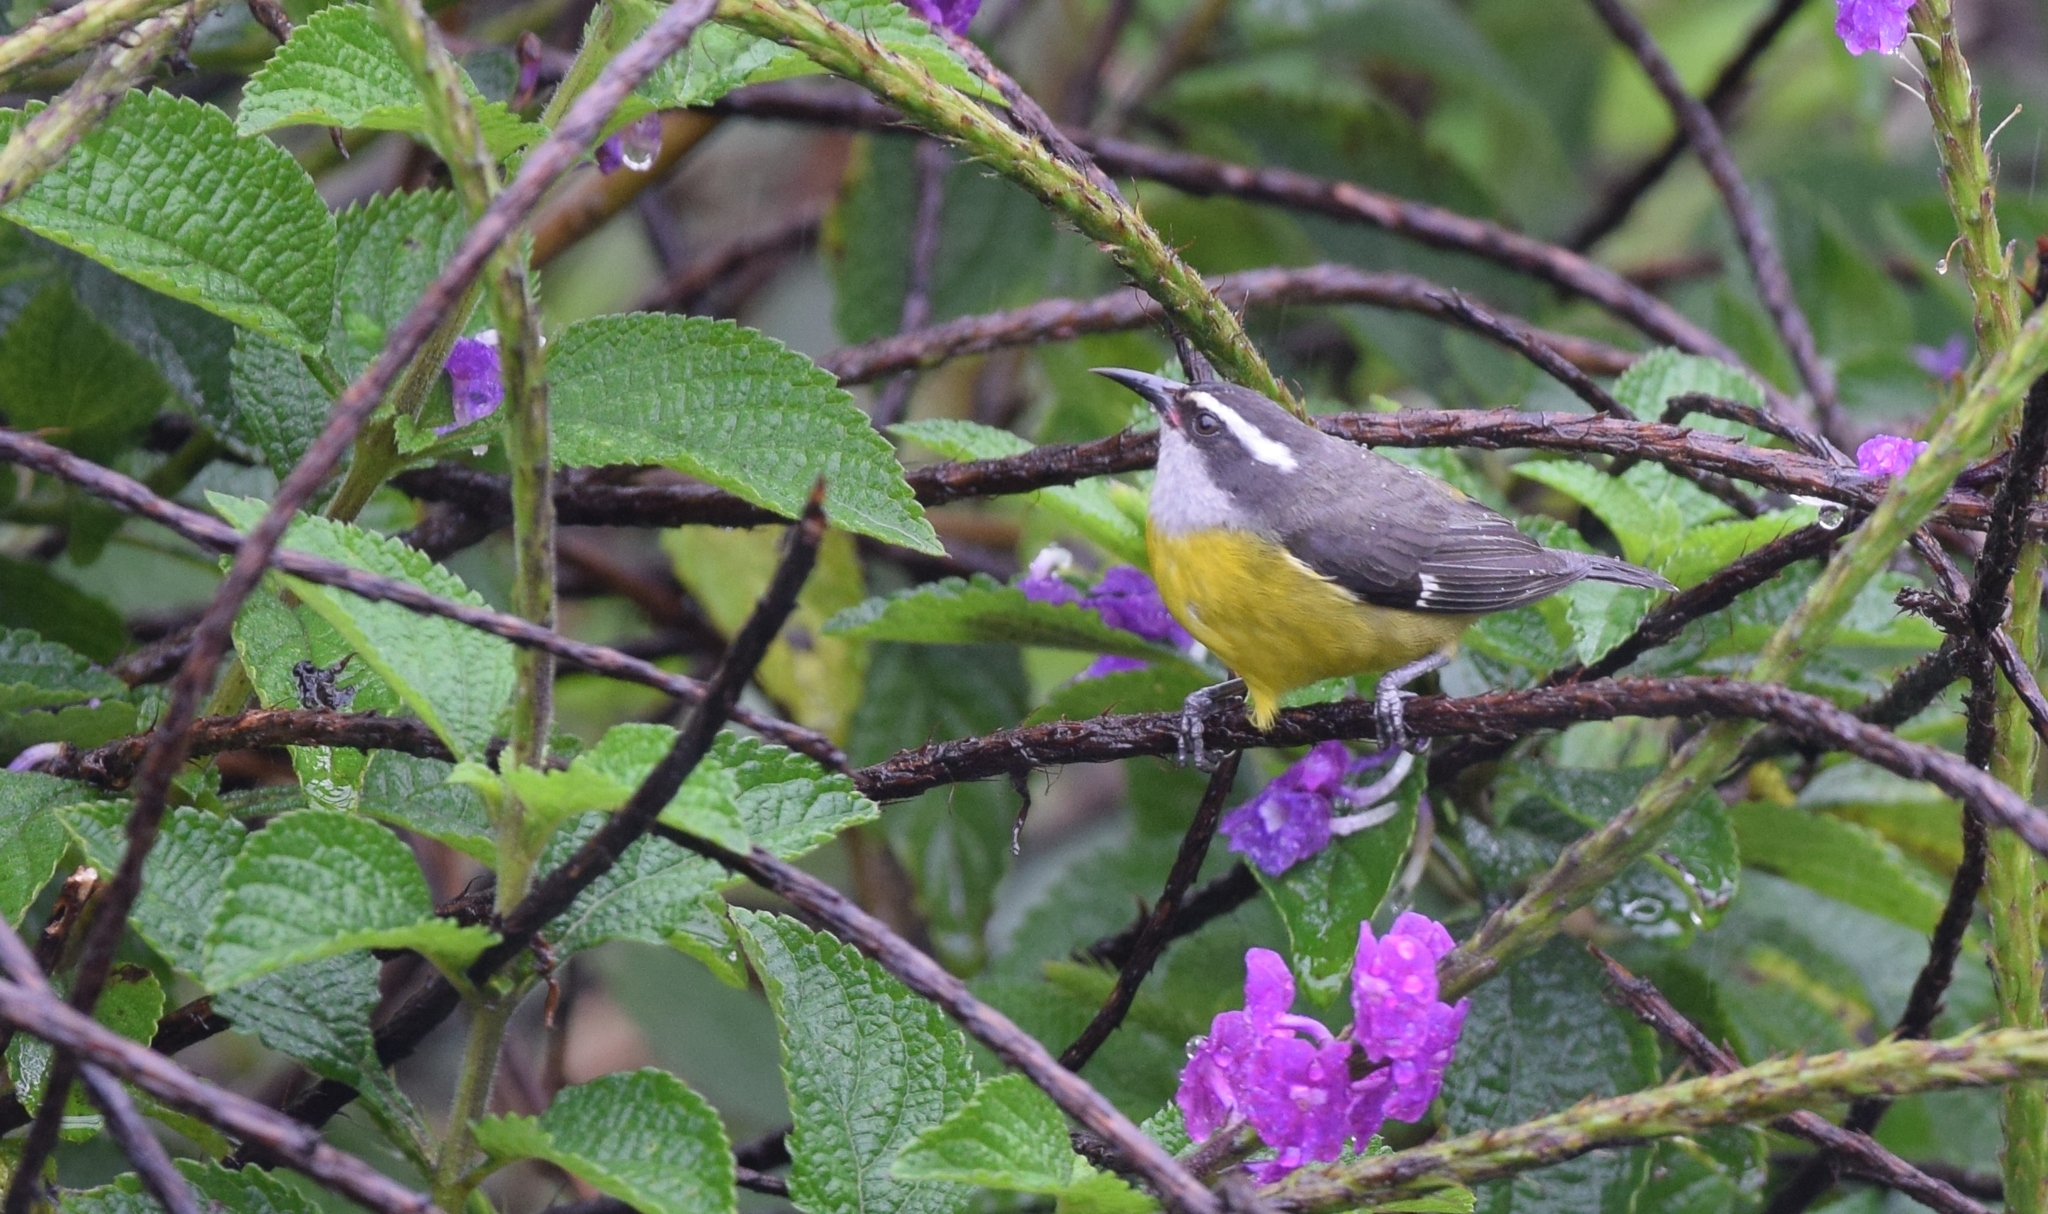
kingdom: Animalia
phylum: Chordata
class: Aves
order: Passeriformes
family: Thraupidae
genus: Coereba
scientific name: Coereba flaveola
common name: Bananaquit
